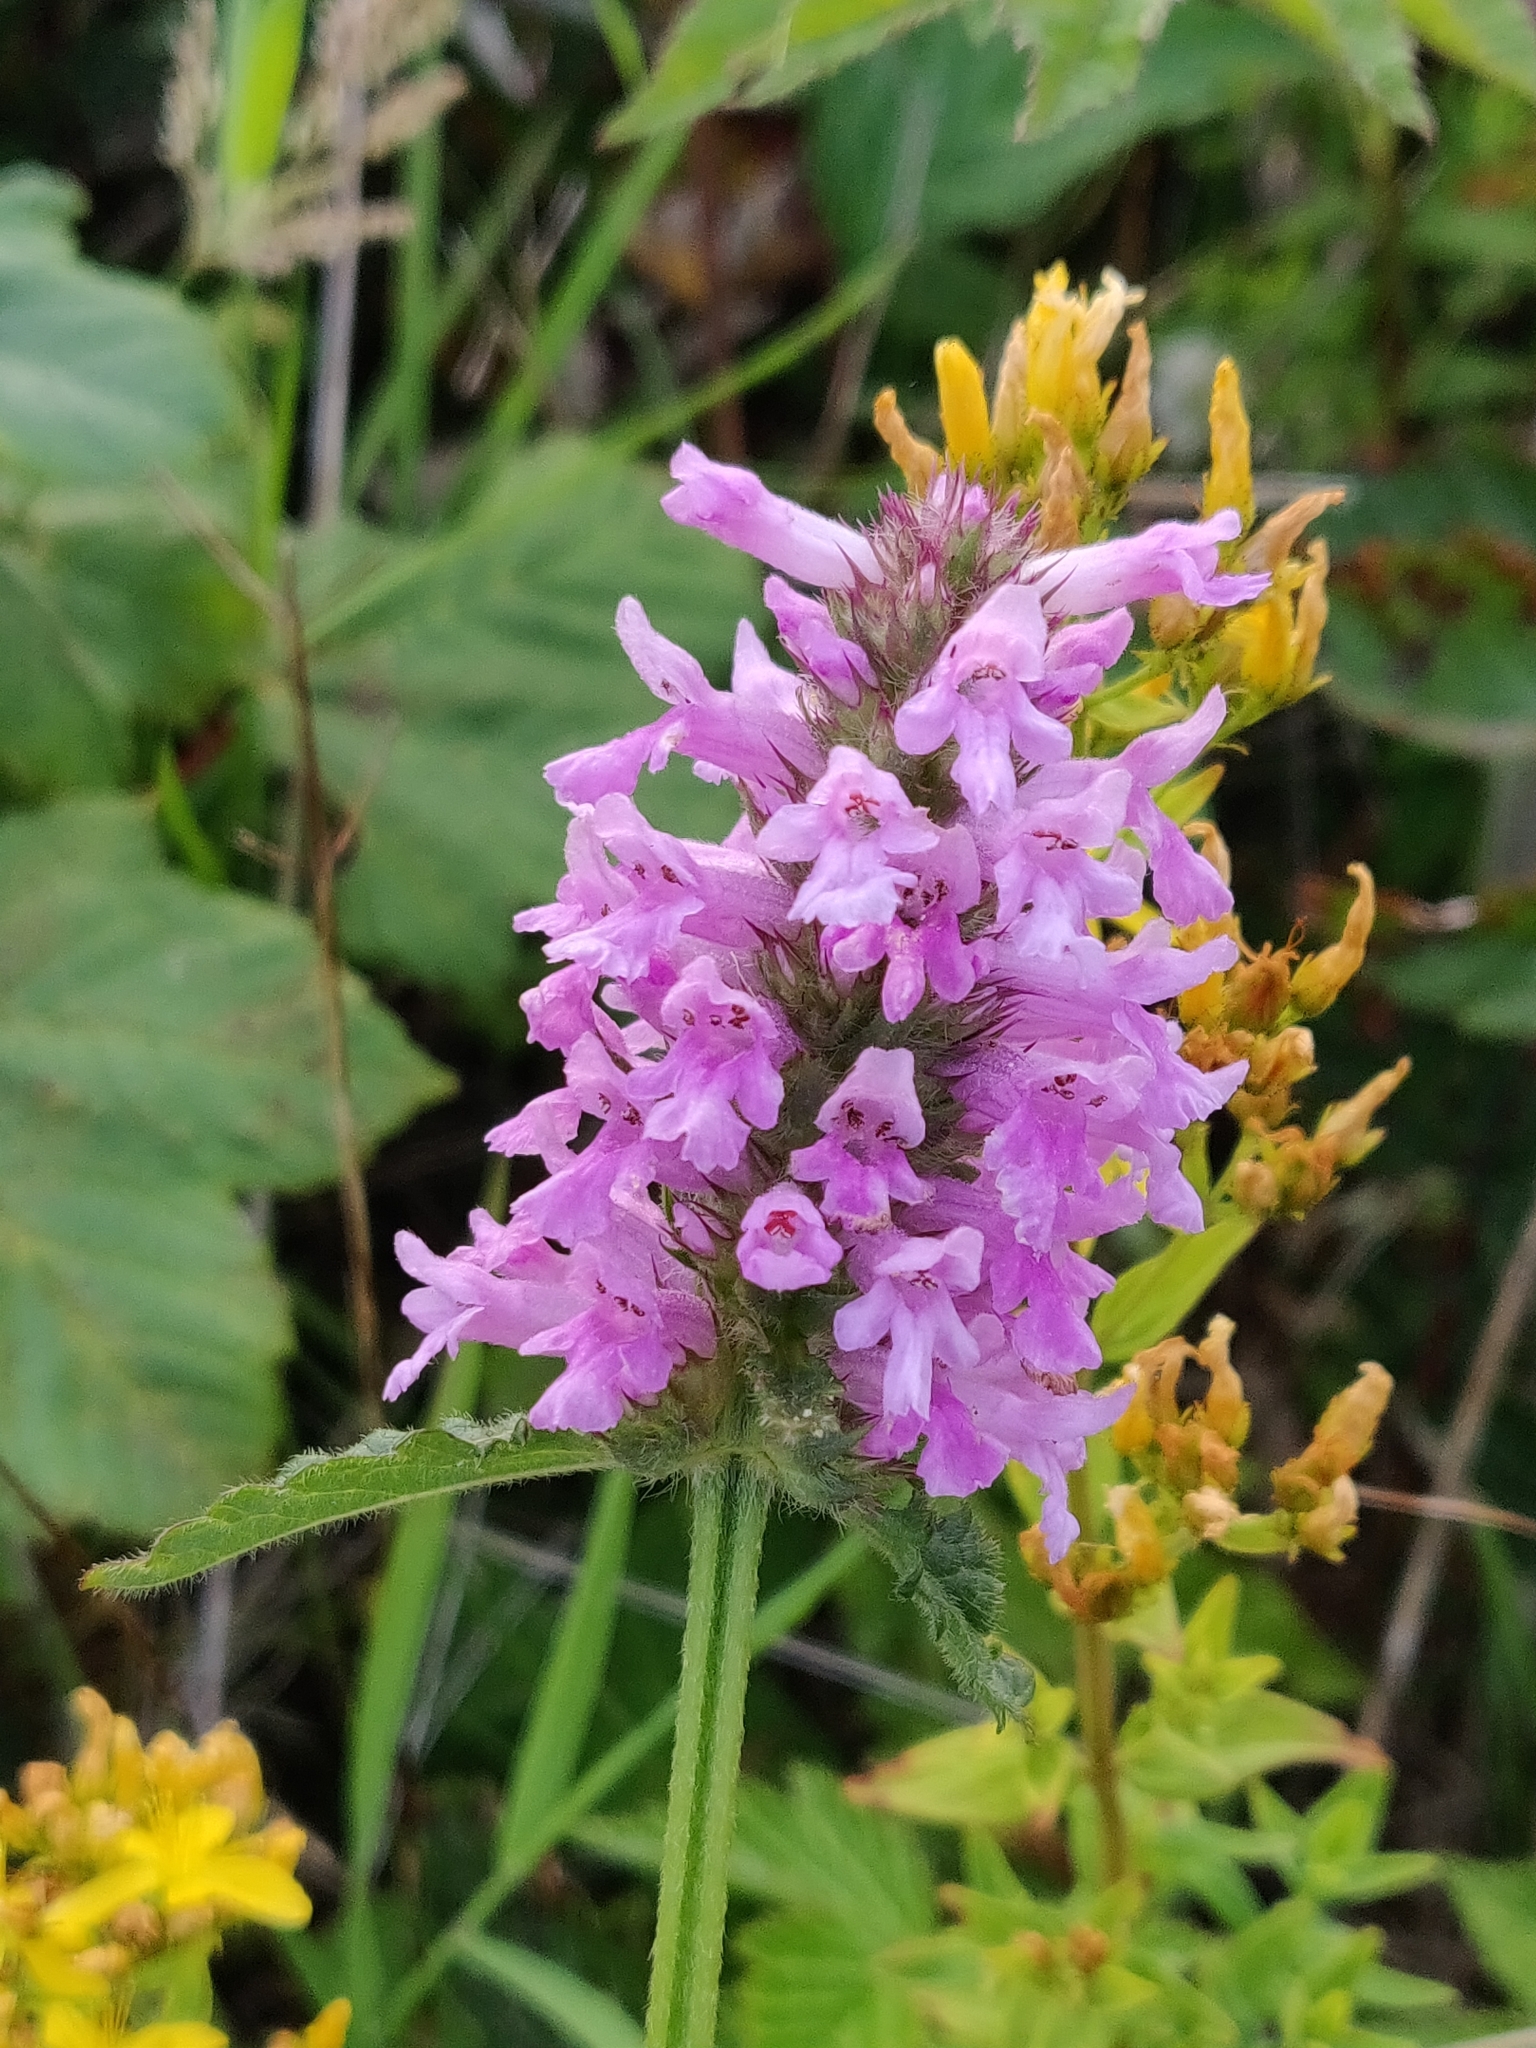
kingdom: Plantae
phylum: Tracheophyta
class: Magnoliopsida
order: Lamiales
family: Lamiaceae
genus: Betonica
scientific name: Betonica officinalis
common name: Bishop's-wort
